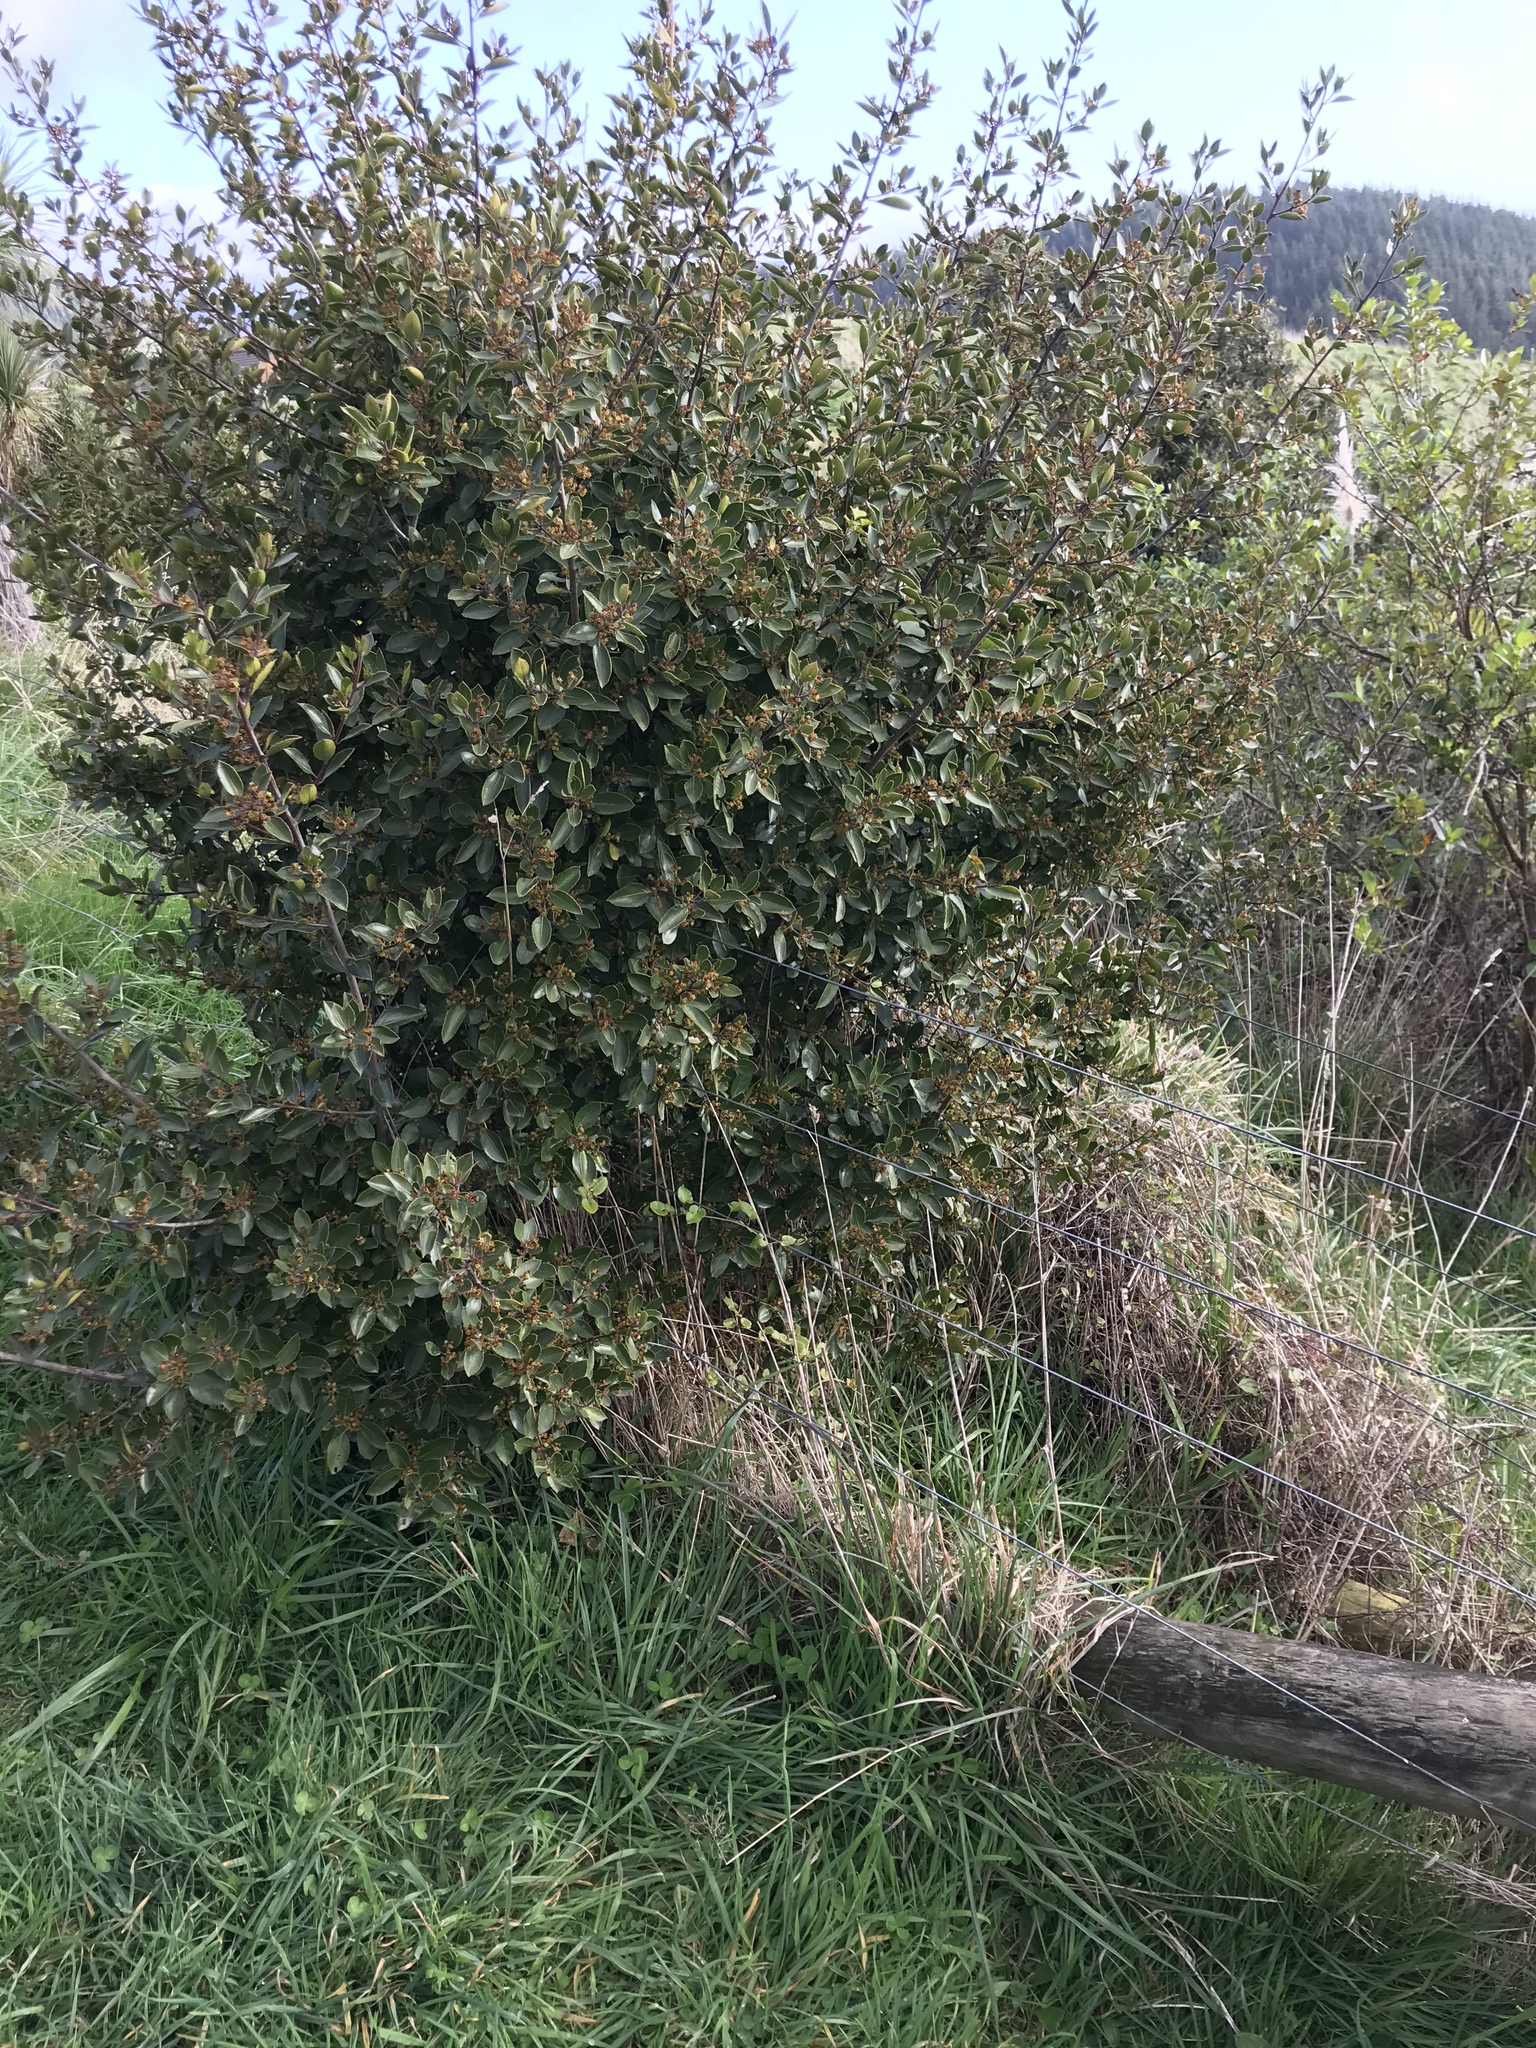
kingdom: Plantae
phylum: Tracheophyta
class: Magnoliopsida
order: Rosales
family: Rhamnaceae
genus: Rhamnus
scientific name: Rhamnus alaternus
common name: Mediterranean buckthorn
